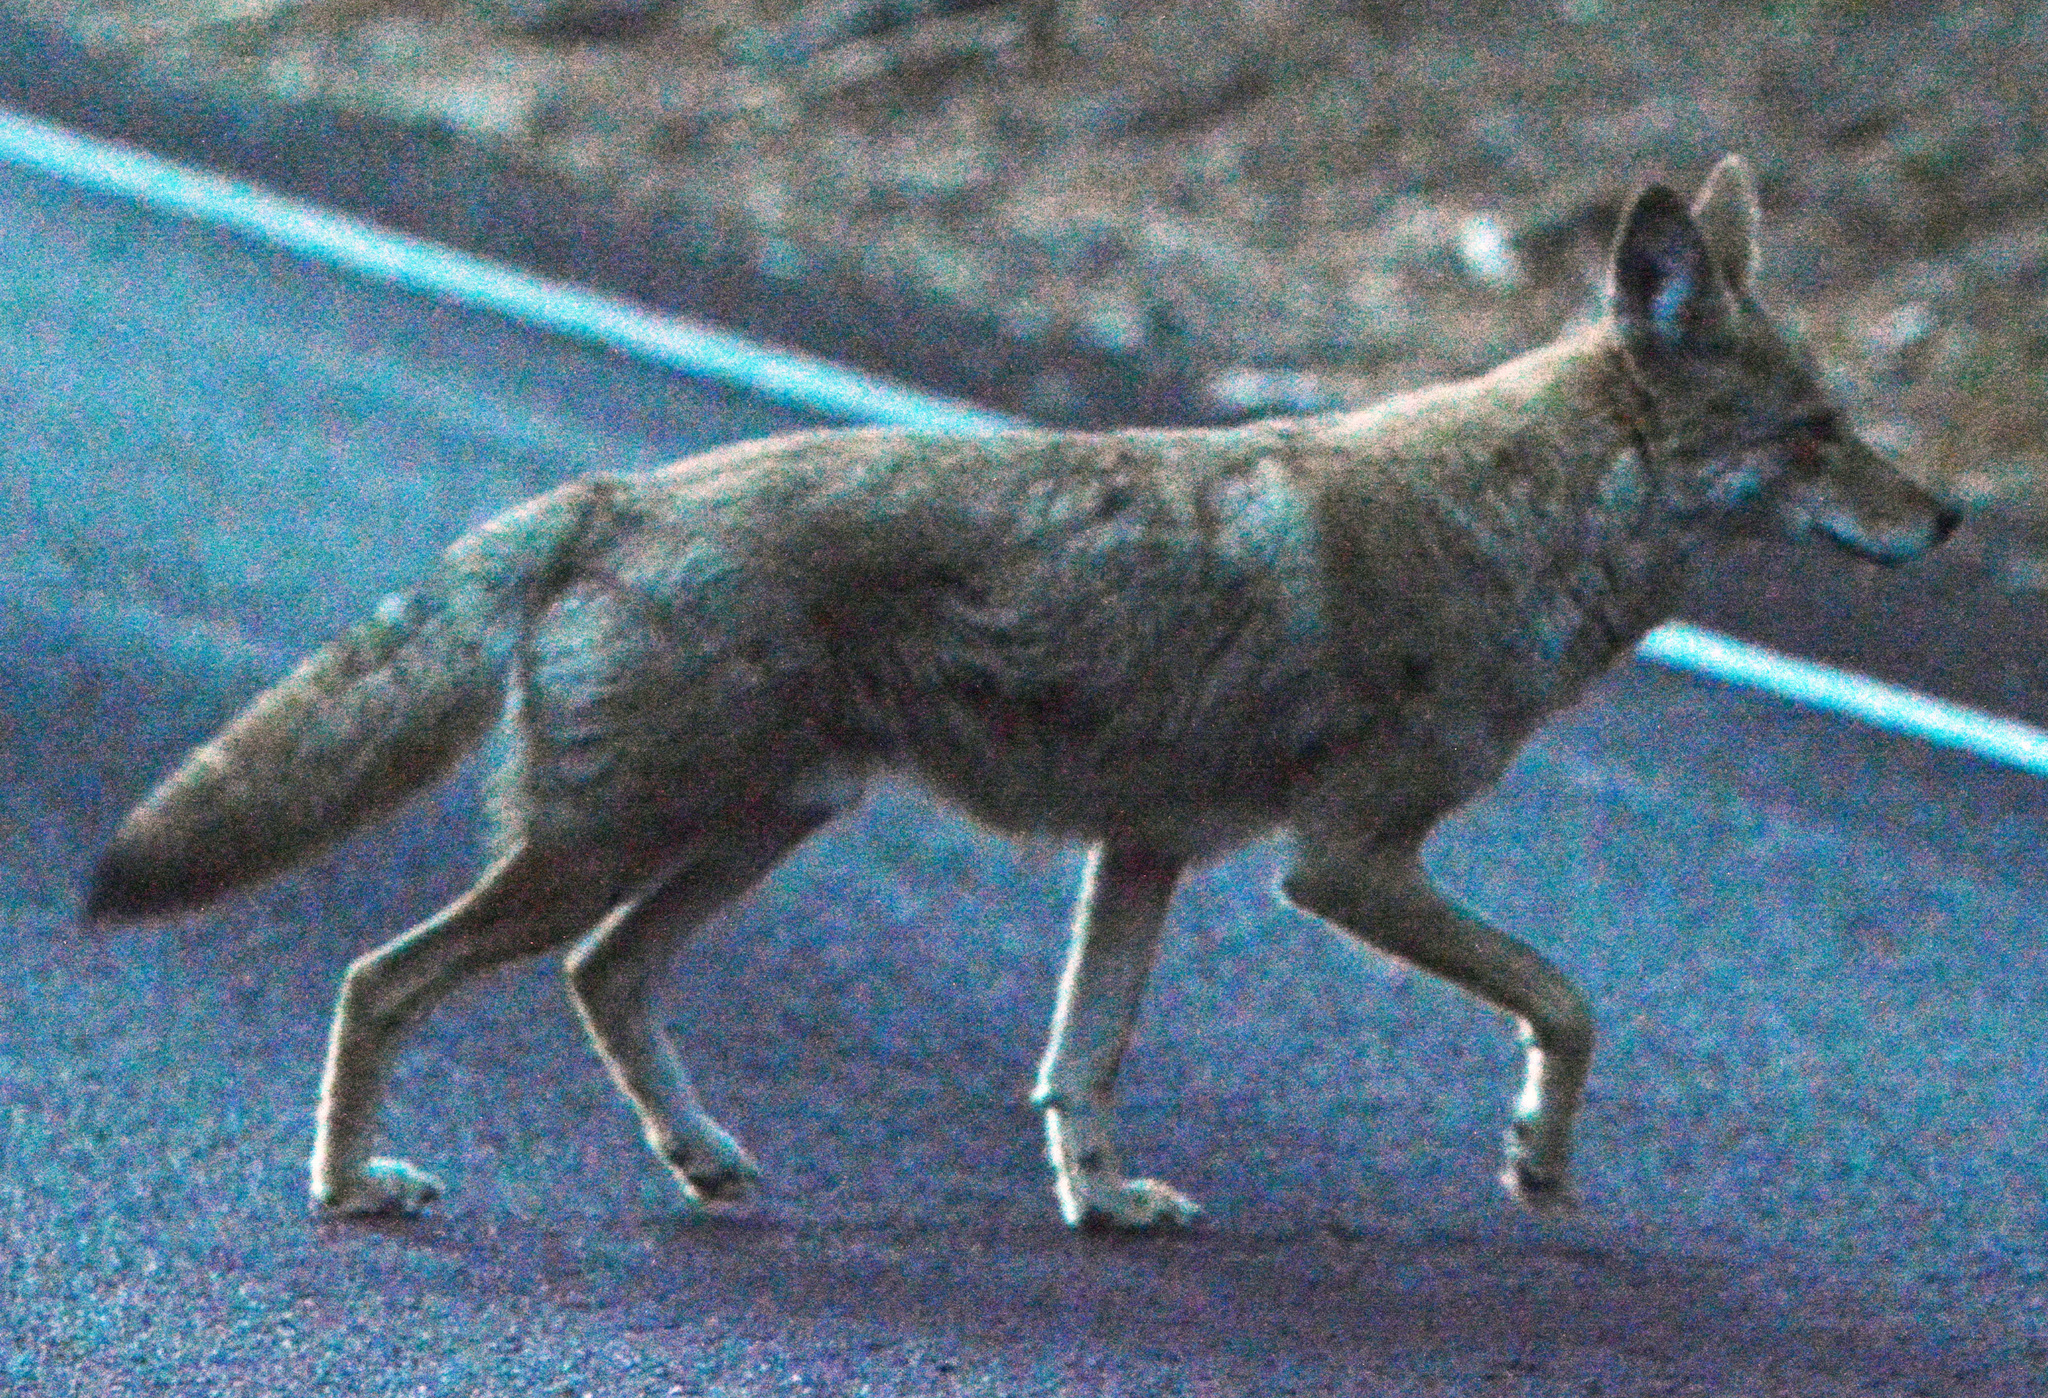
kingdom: Animalia
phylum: Chordata
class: Mammalia
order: Carnivora
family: Canidae
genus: Canis
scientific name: Canis latrans
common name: Coyote
